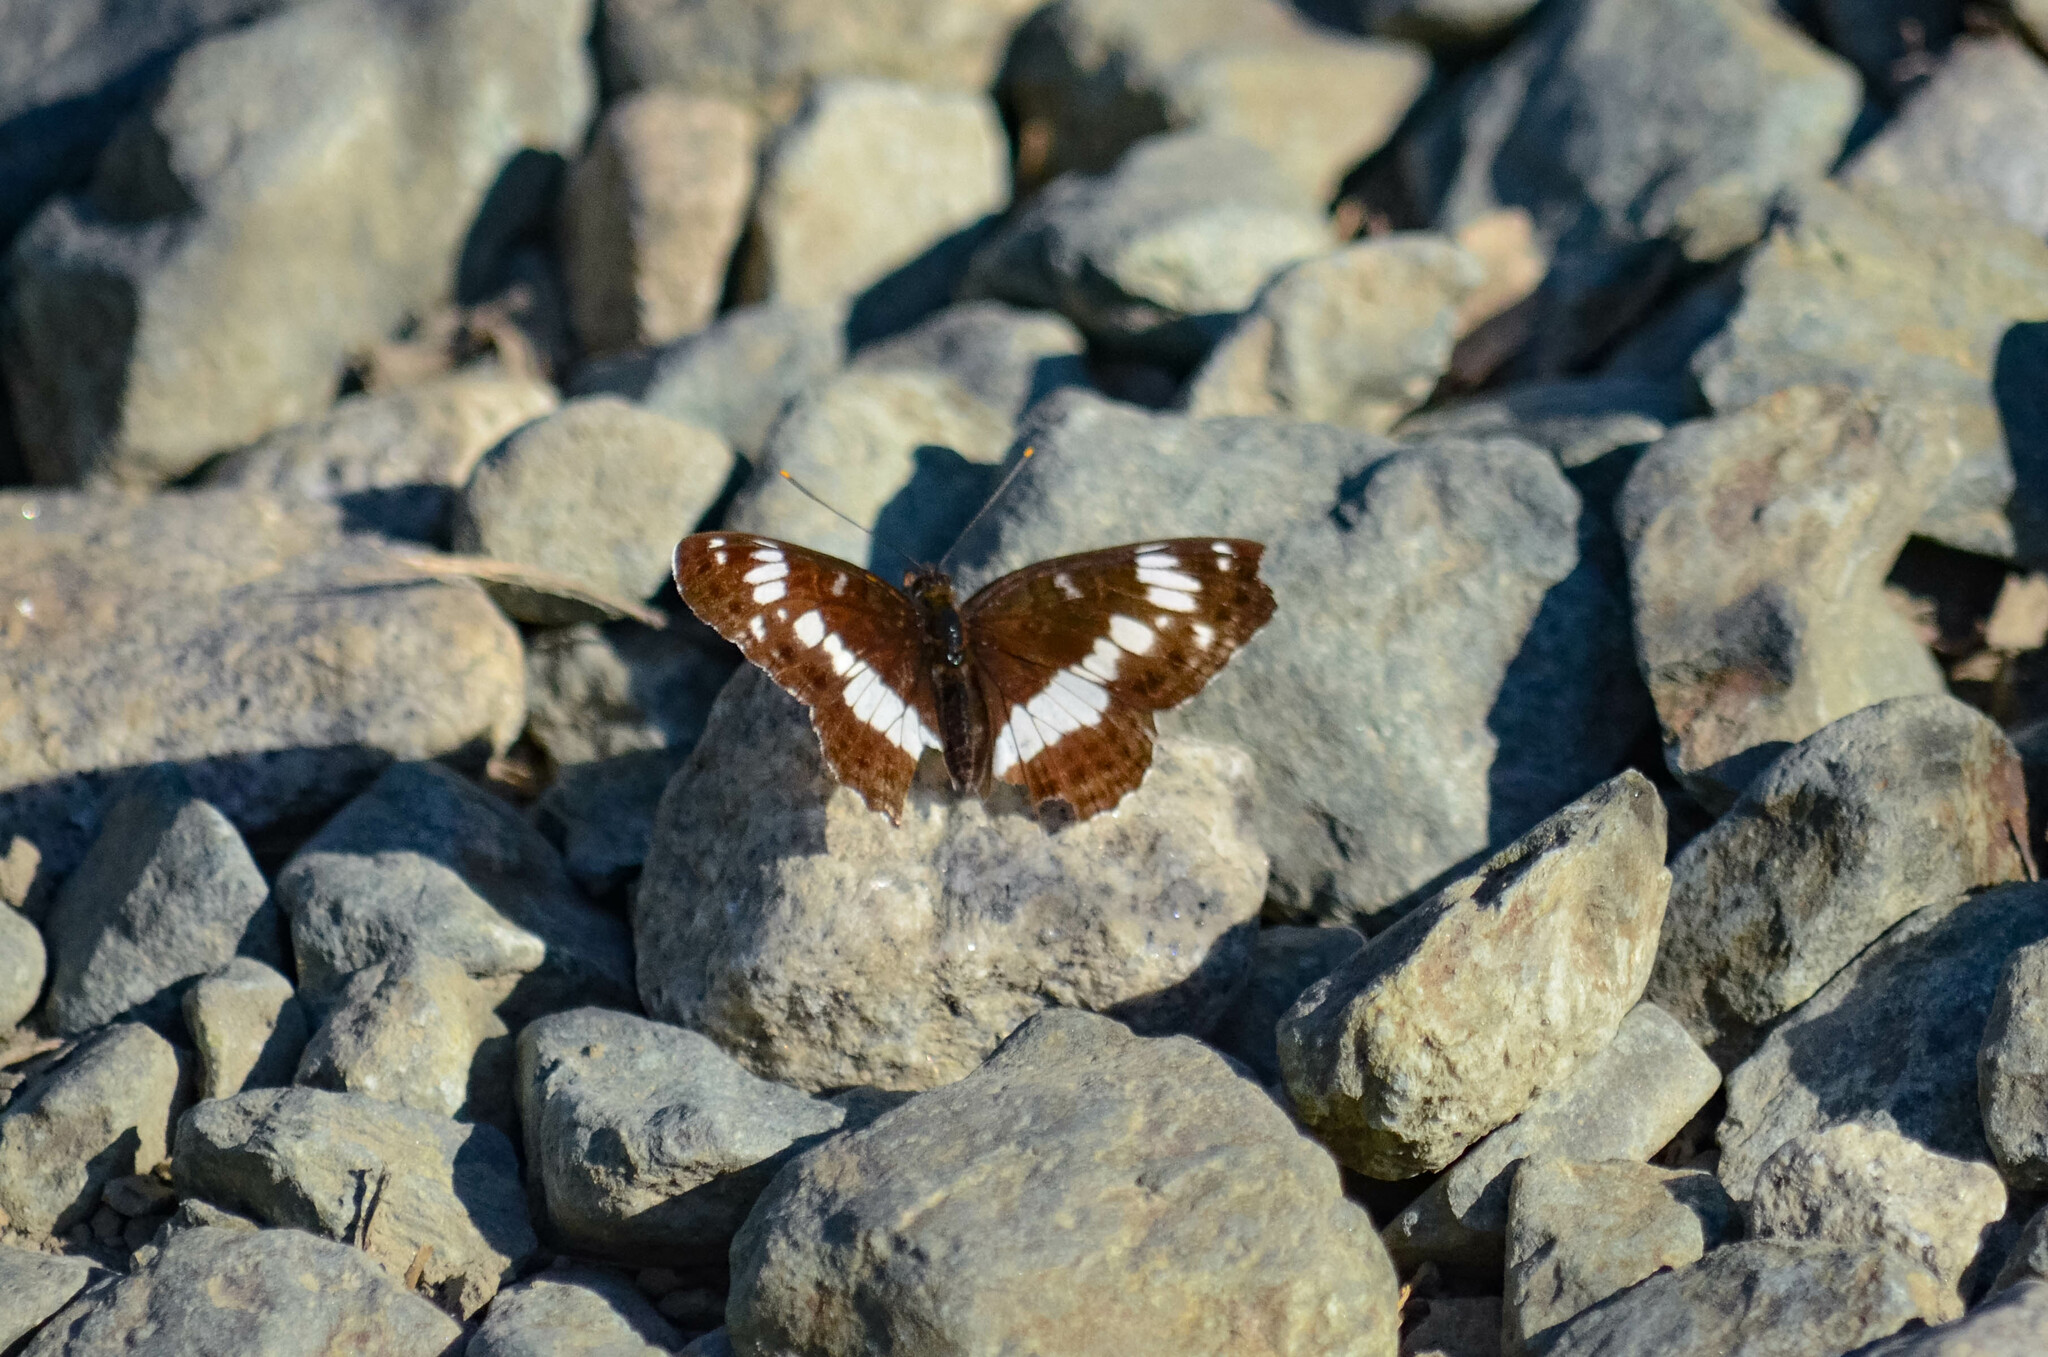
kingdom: Animalia
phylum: Arthropoda
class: Insecta
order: Lepidoptera
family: Nymphalidae
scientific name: Nymphalidae
